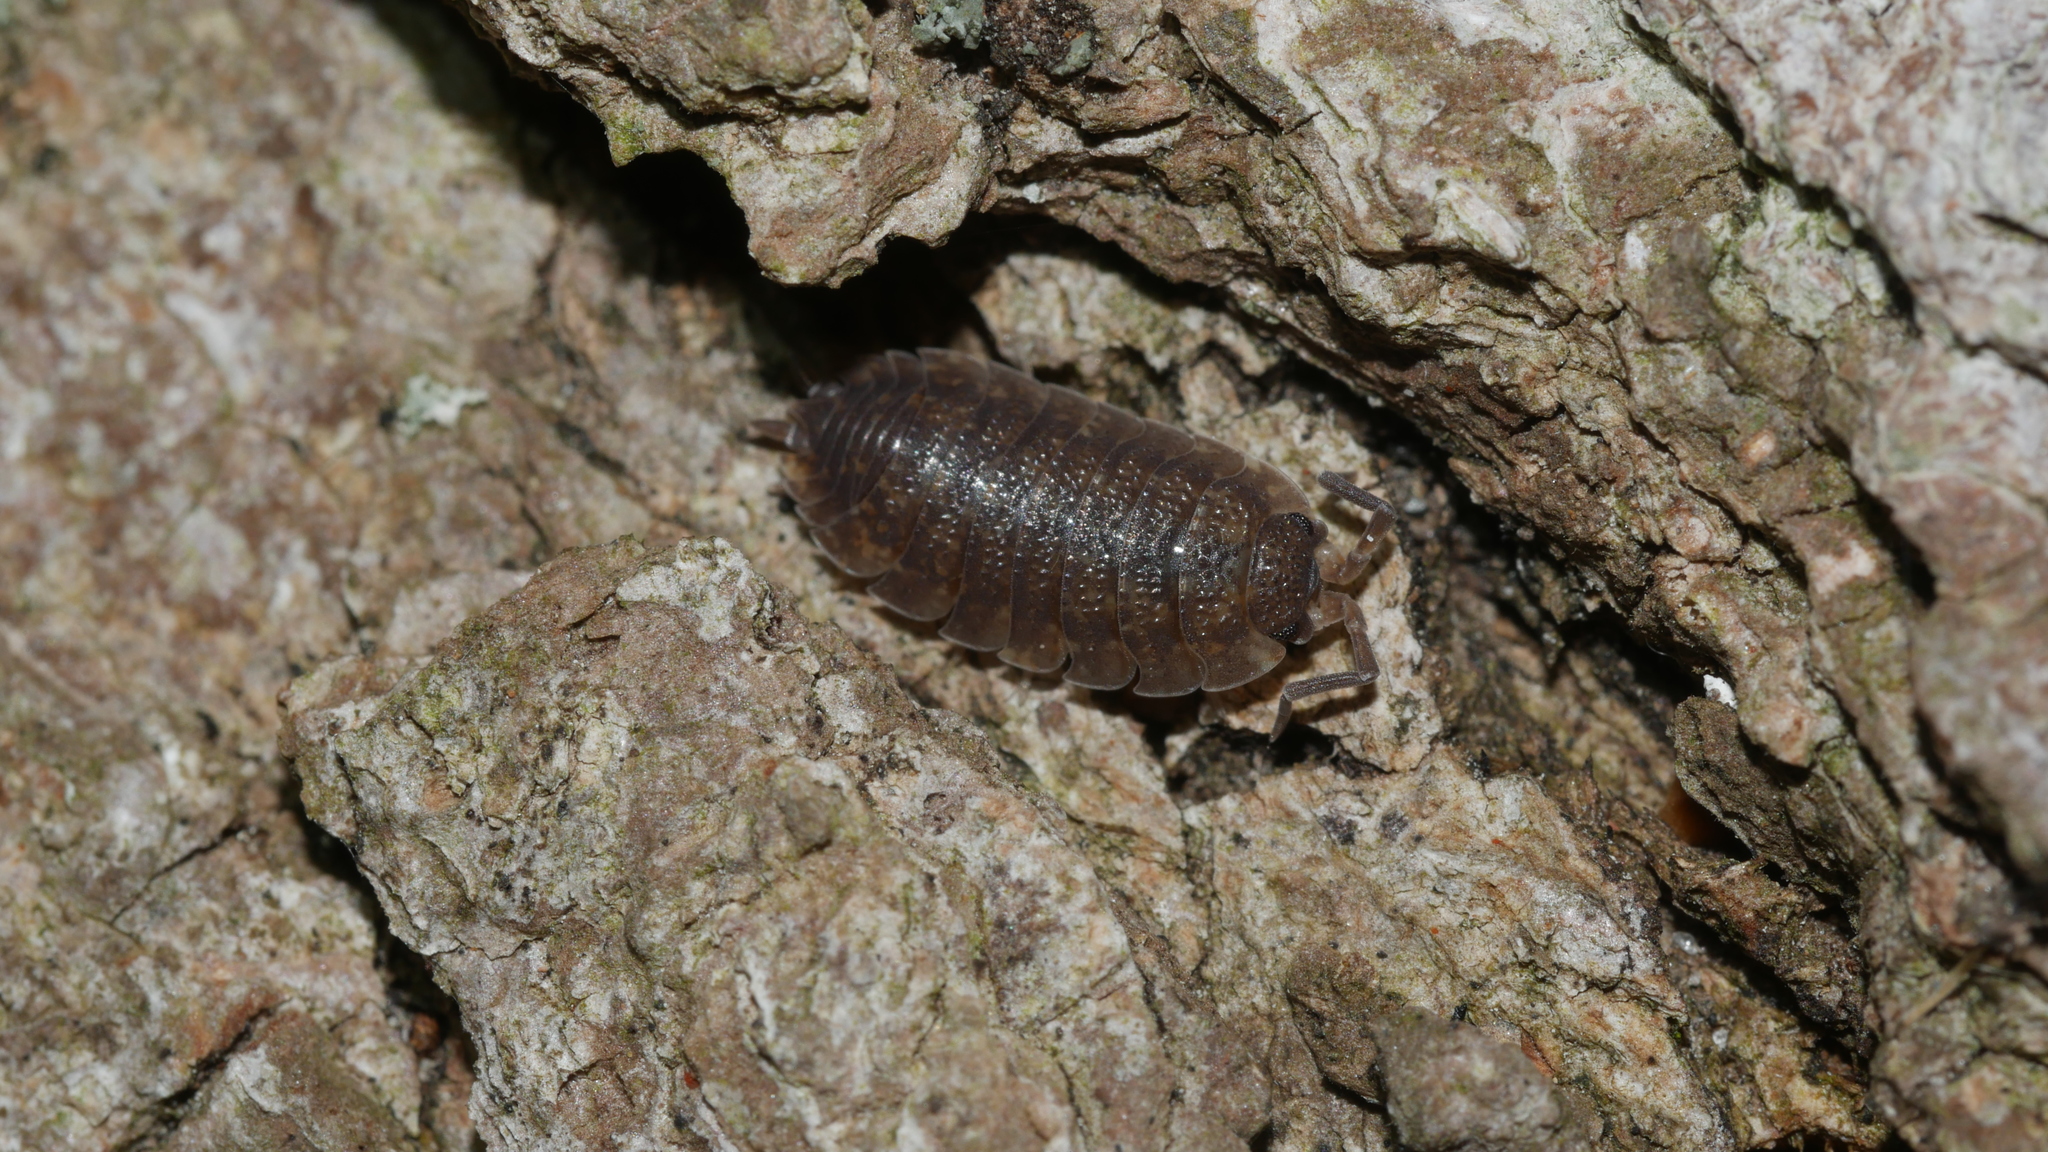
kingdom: Animalia
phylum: Arthropoda
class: Malacostraca
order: Isopoda
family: Porcellionidae
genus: Porcellio
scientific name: Porcellio scaber
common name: Common rough woodlouse
